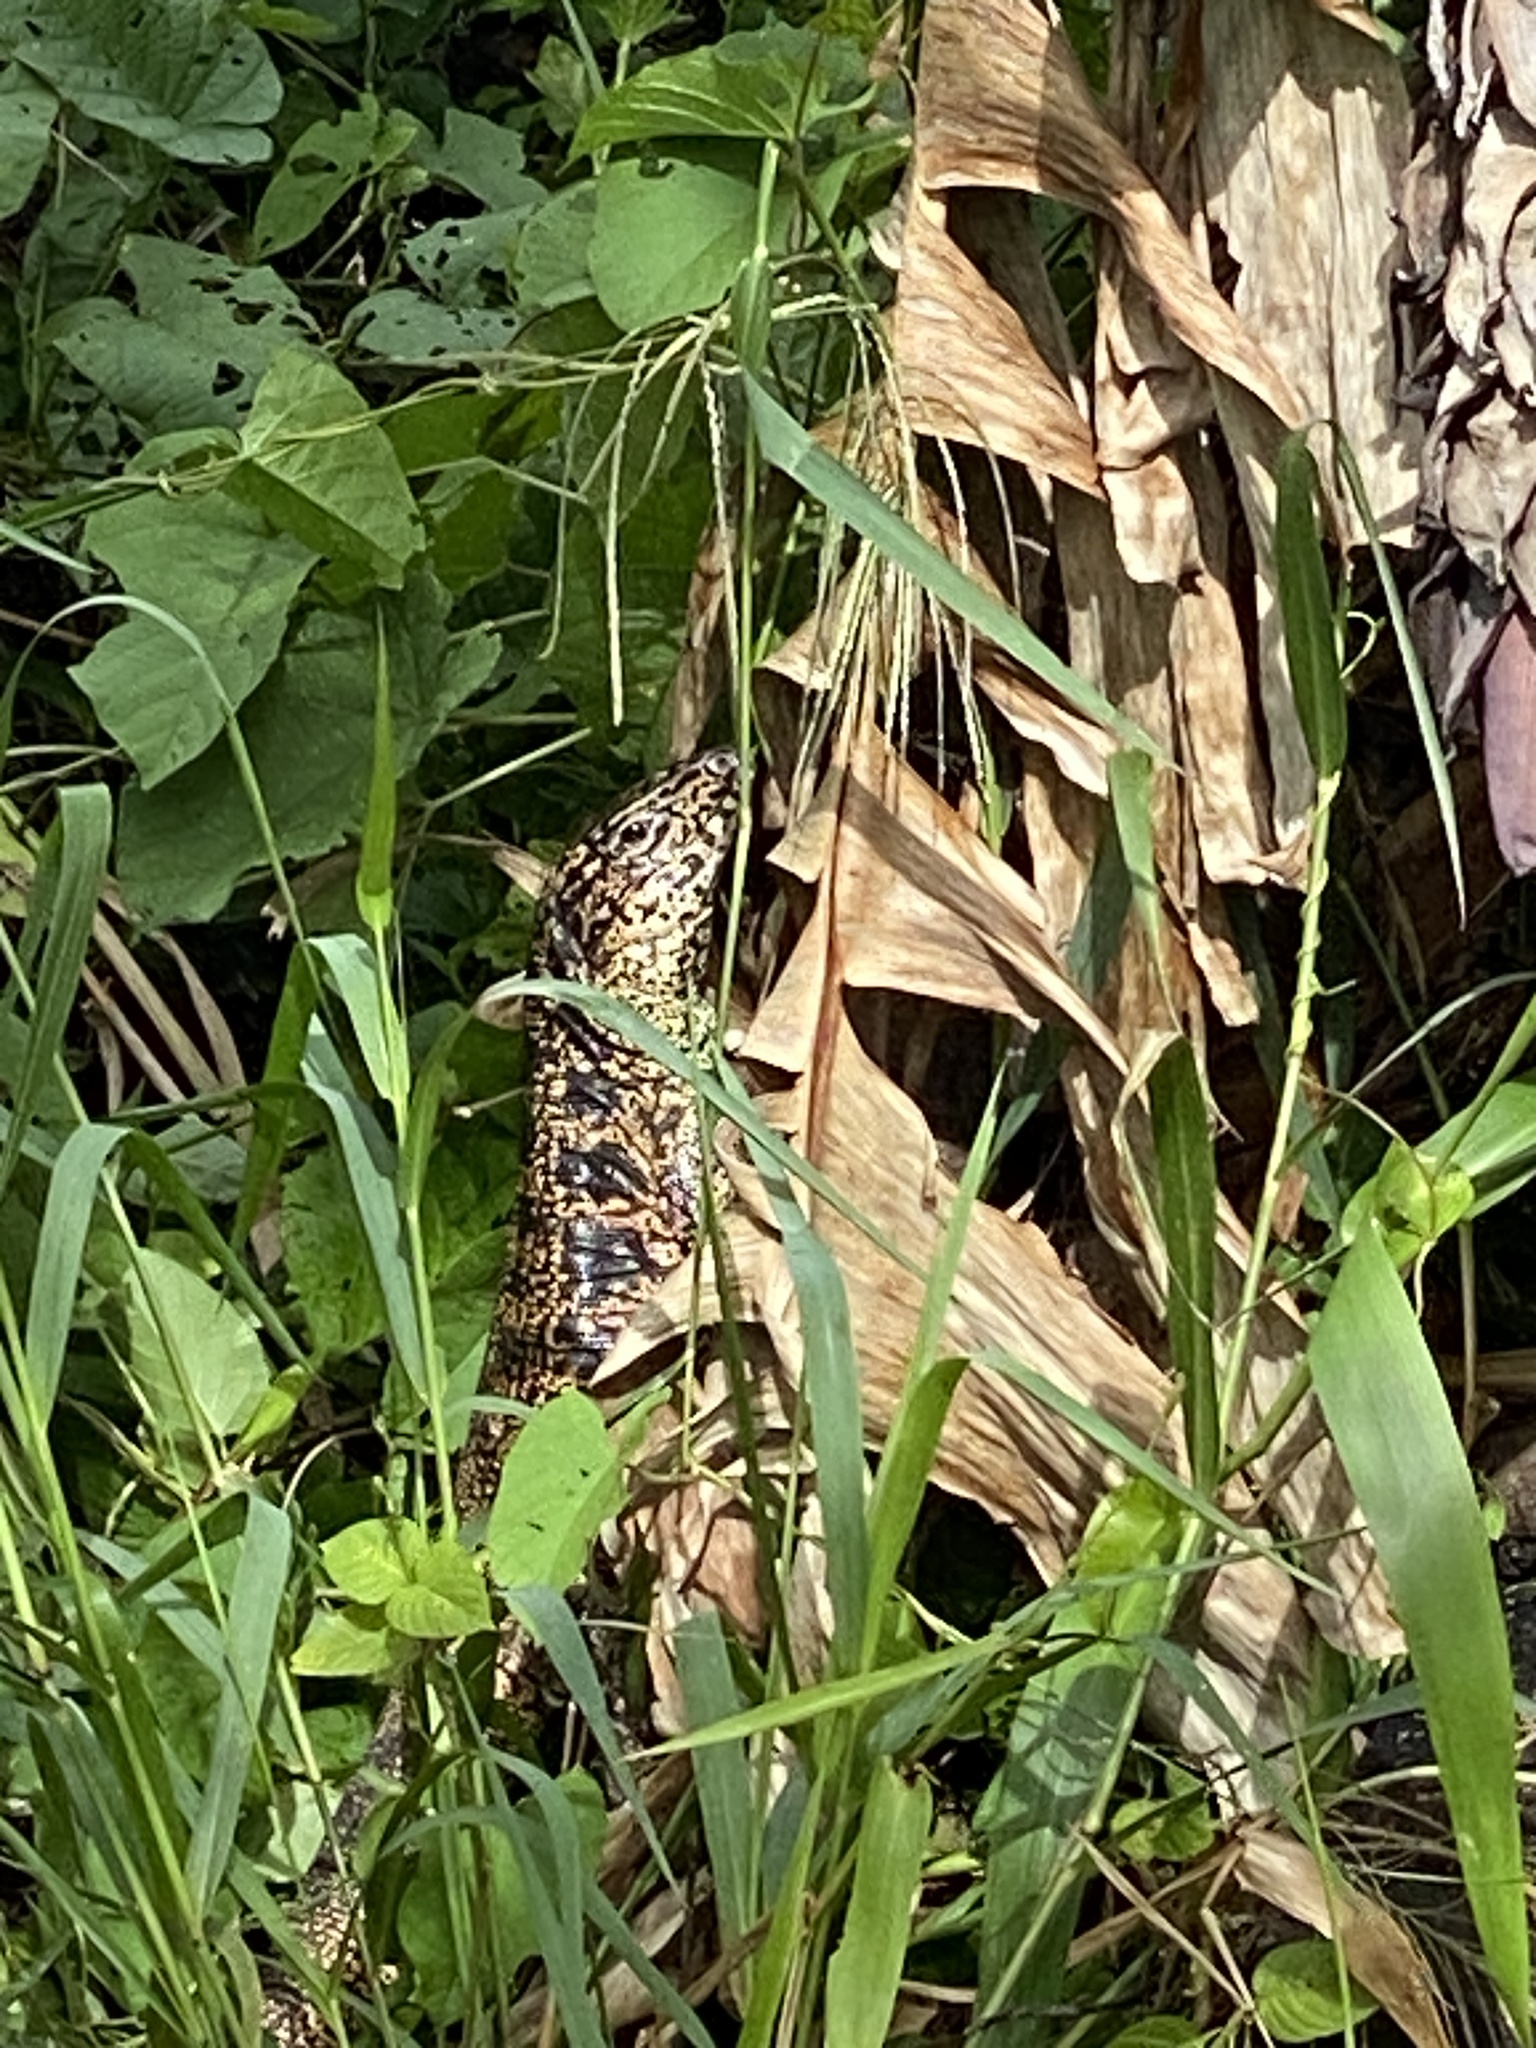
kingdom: Animalia
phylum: Chordata
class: Squamata
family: Teiidae
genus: Tupinambis
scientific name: Tupinambis teguixin
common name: Black tegu
